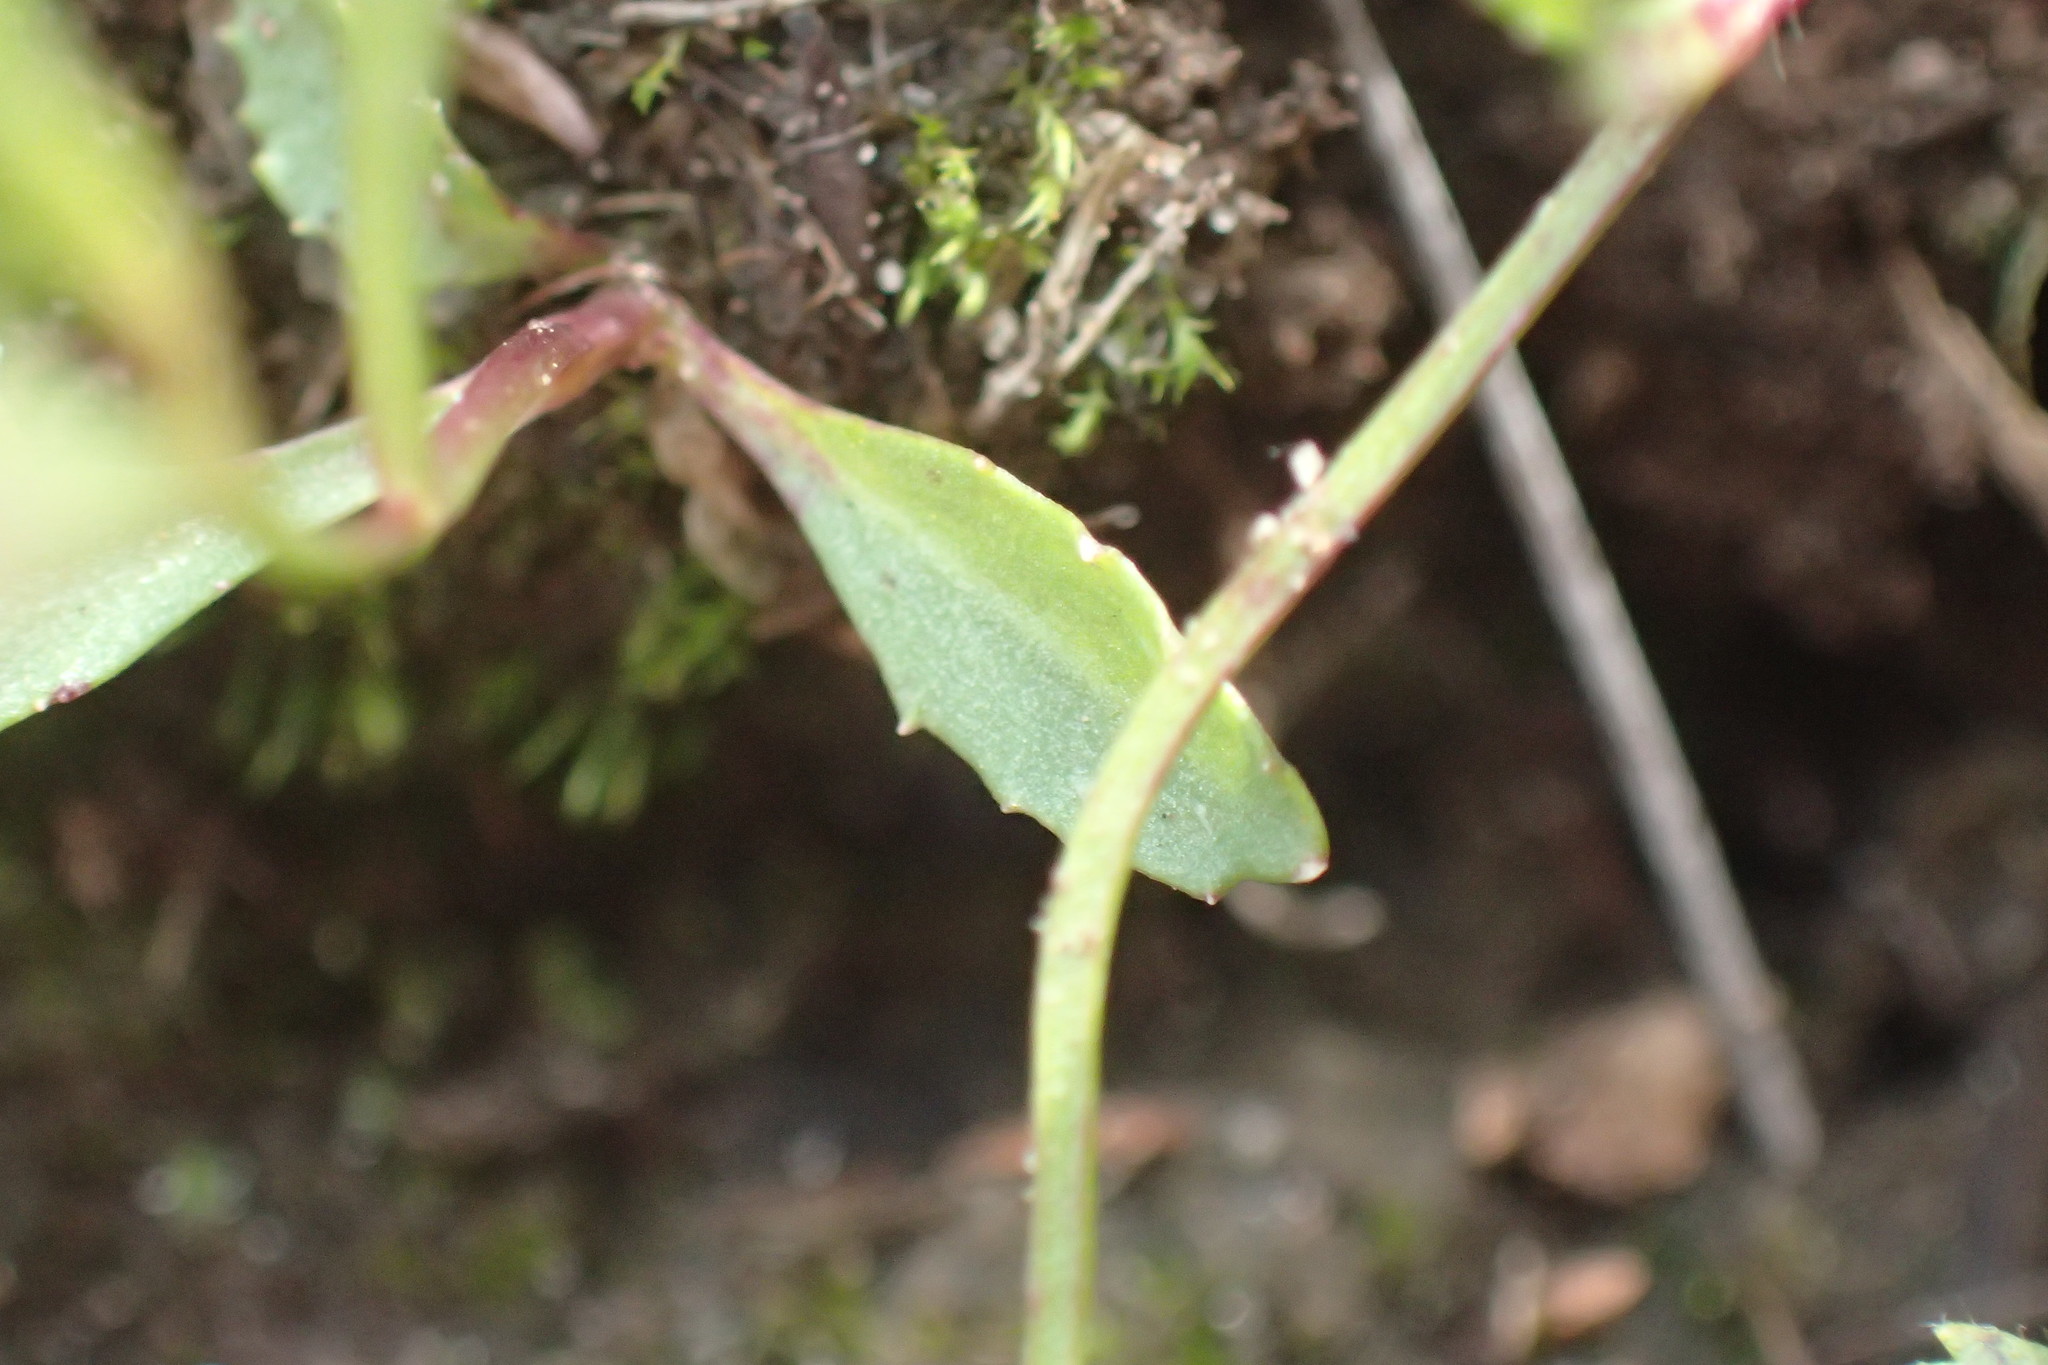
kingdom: Plantae
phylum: Tracheophyta
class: Magnoliopsida
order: Asterales
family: Campanulaceae
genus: Lobelia
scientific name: Lobelia flaccida
